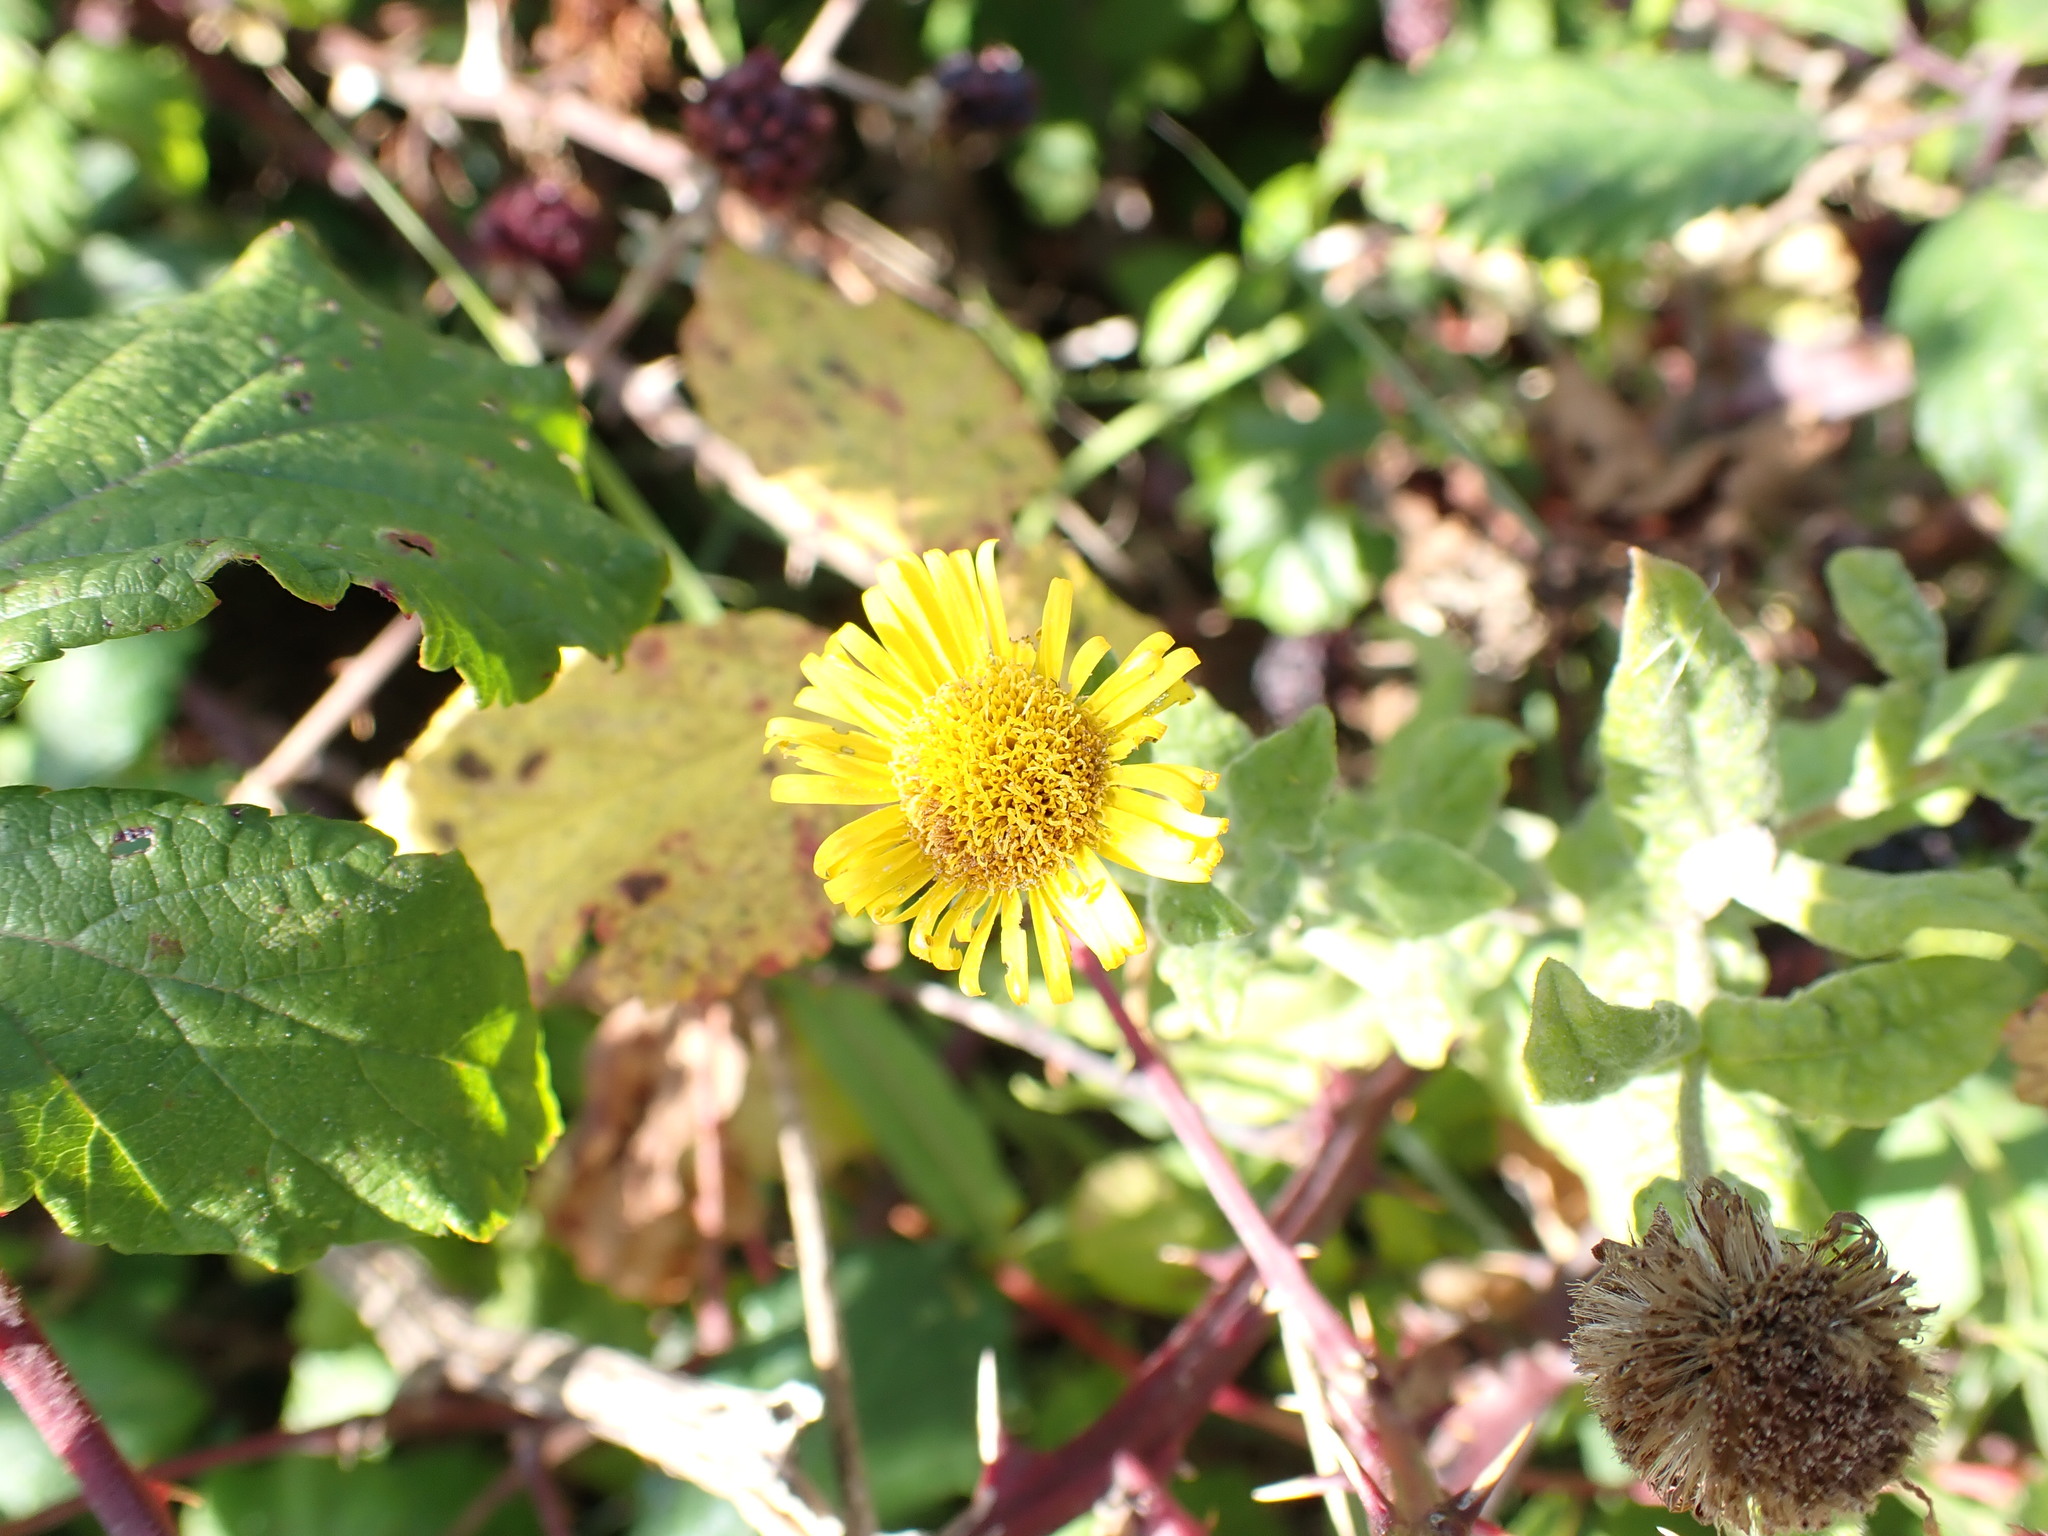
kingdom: Plantae
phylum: Tracheophyta
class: Magnoliopsida
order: Asterales
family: Asteraceae
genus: Pulicaria
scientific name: Pulicaria dysenterica
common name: Common fleabane
